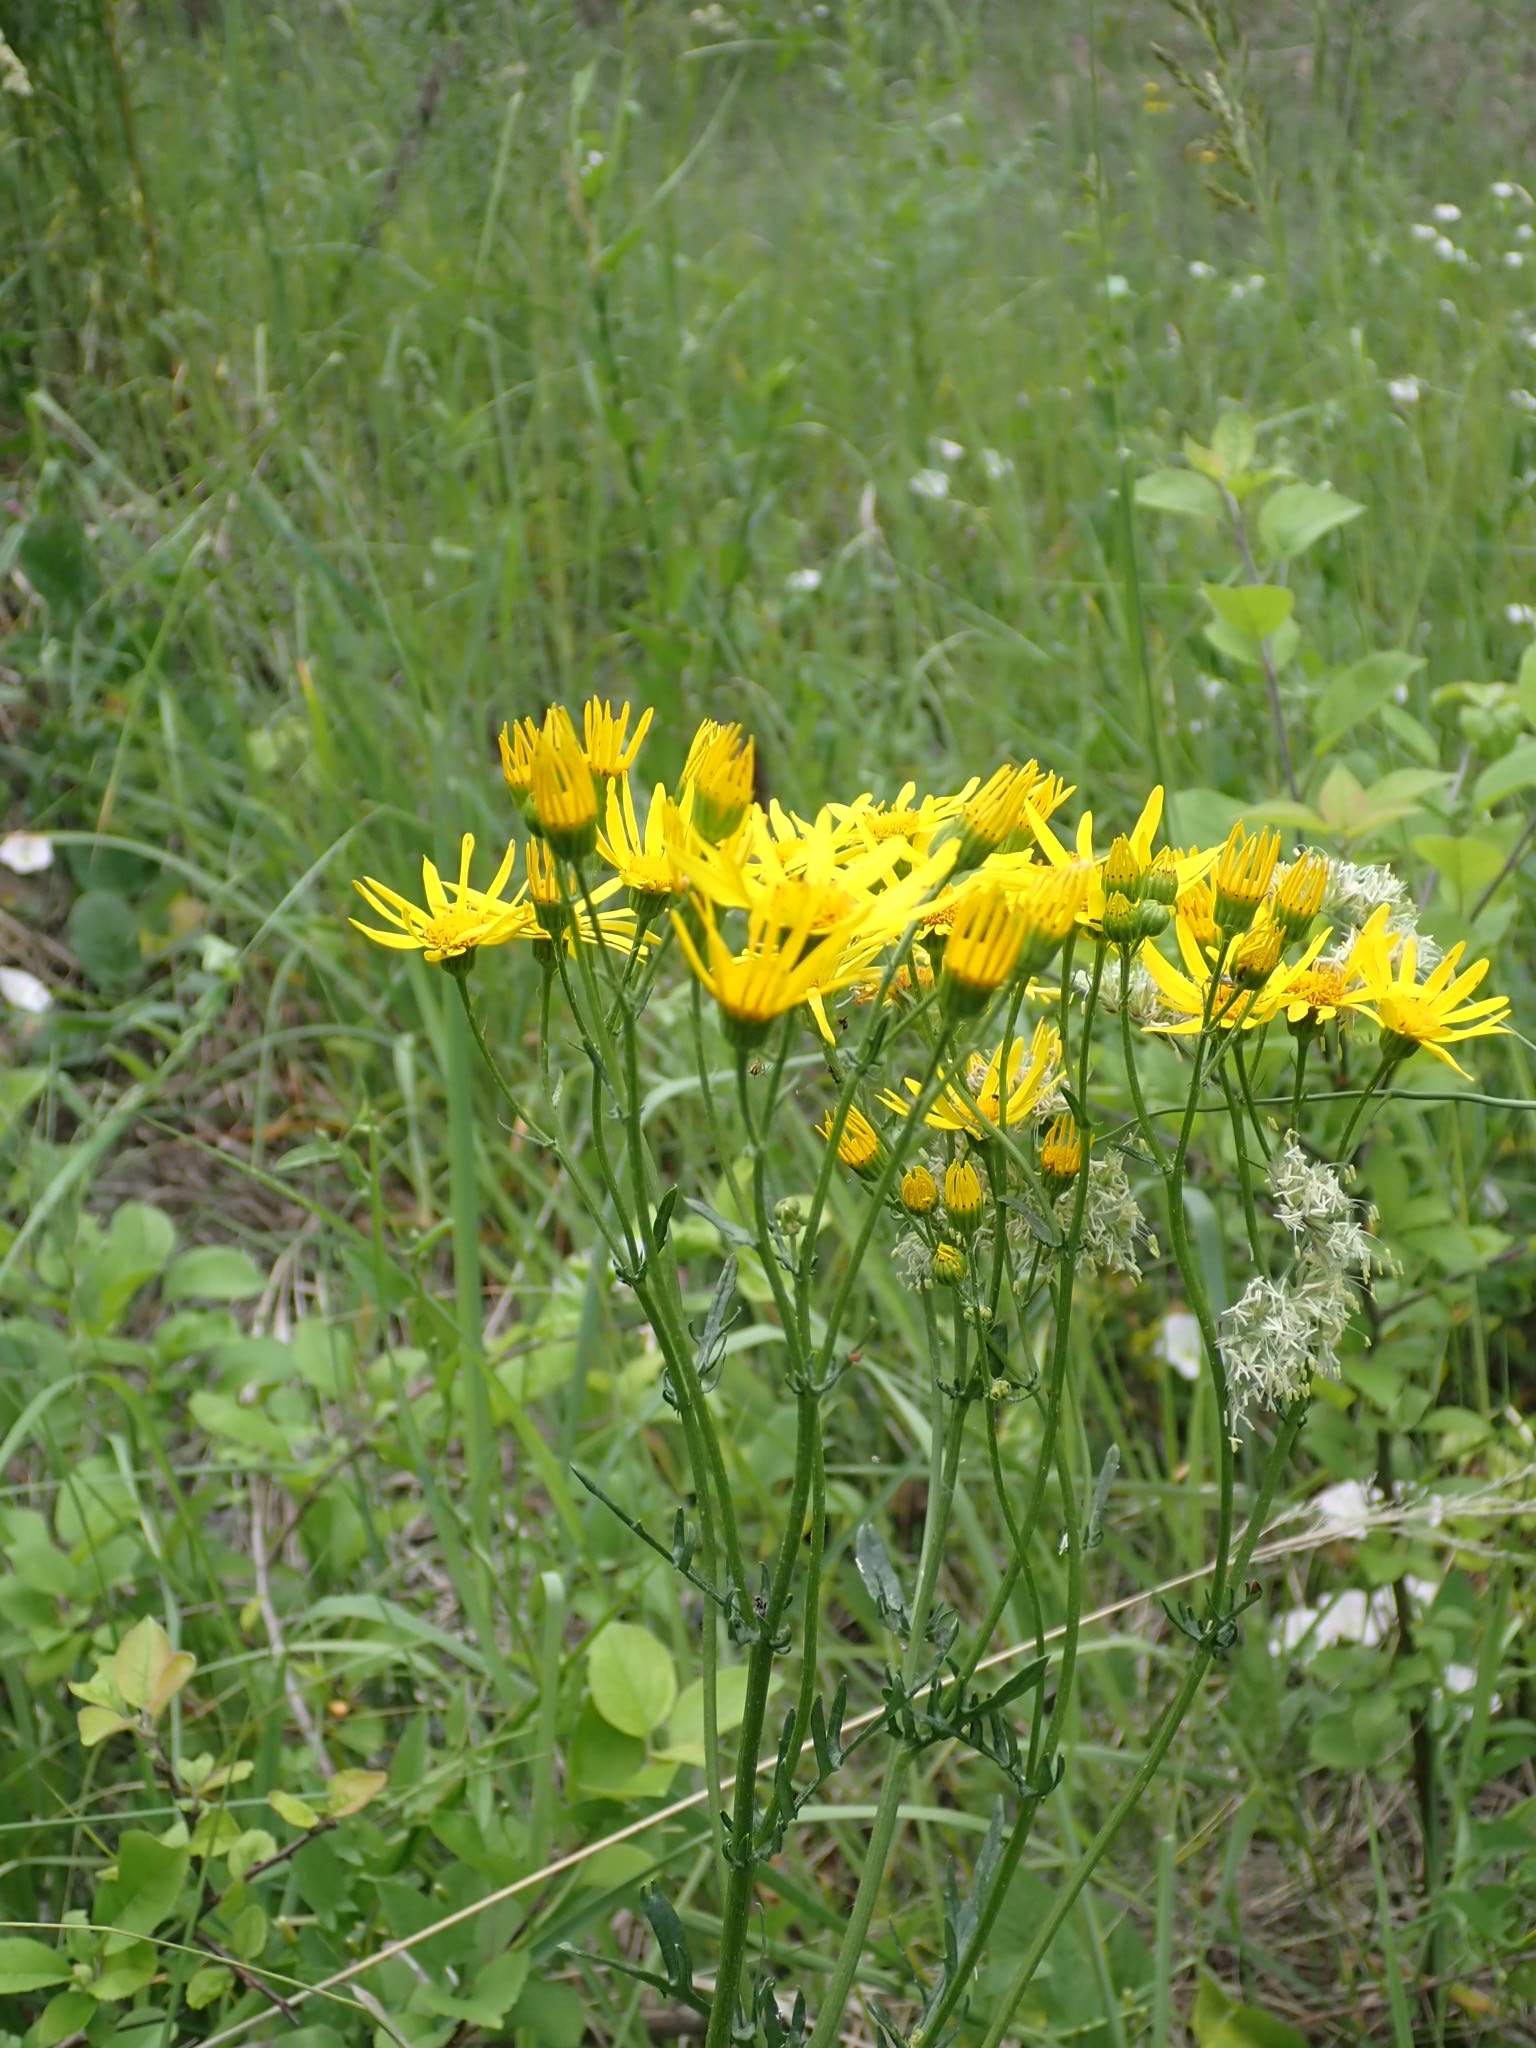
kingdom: Plantae
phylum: Tracheophyta
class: Magnoliopsida
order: Asterales
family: Asteraceae
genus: Jacobaea
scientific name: Jacobaea vulgaris
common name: Stinking willie
